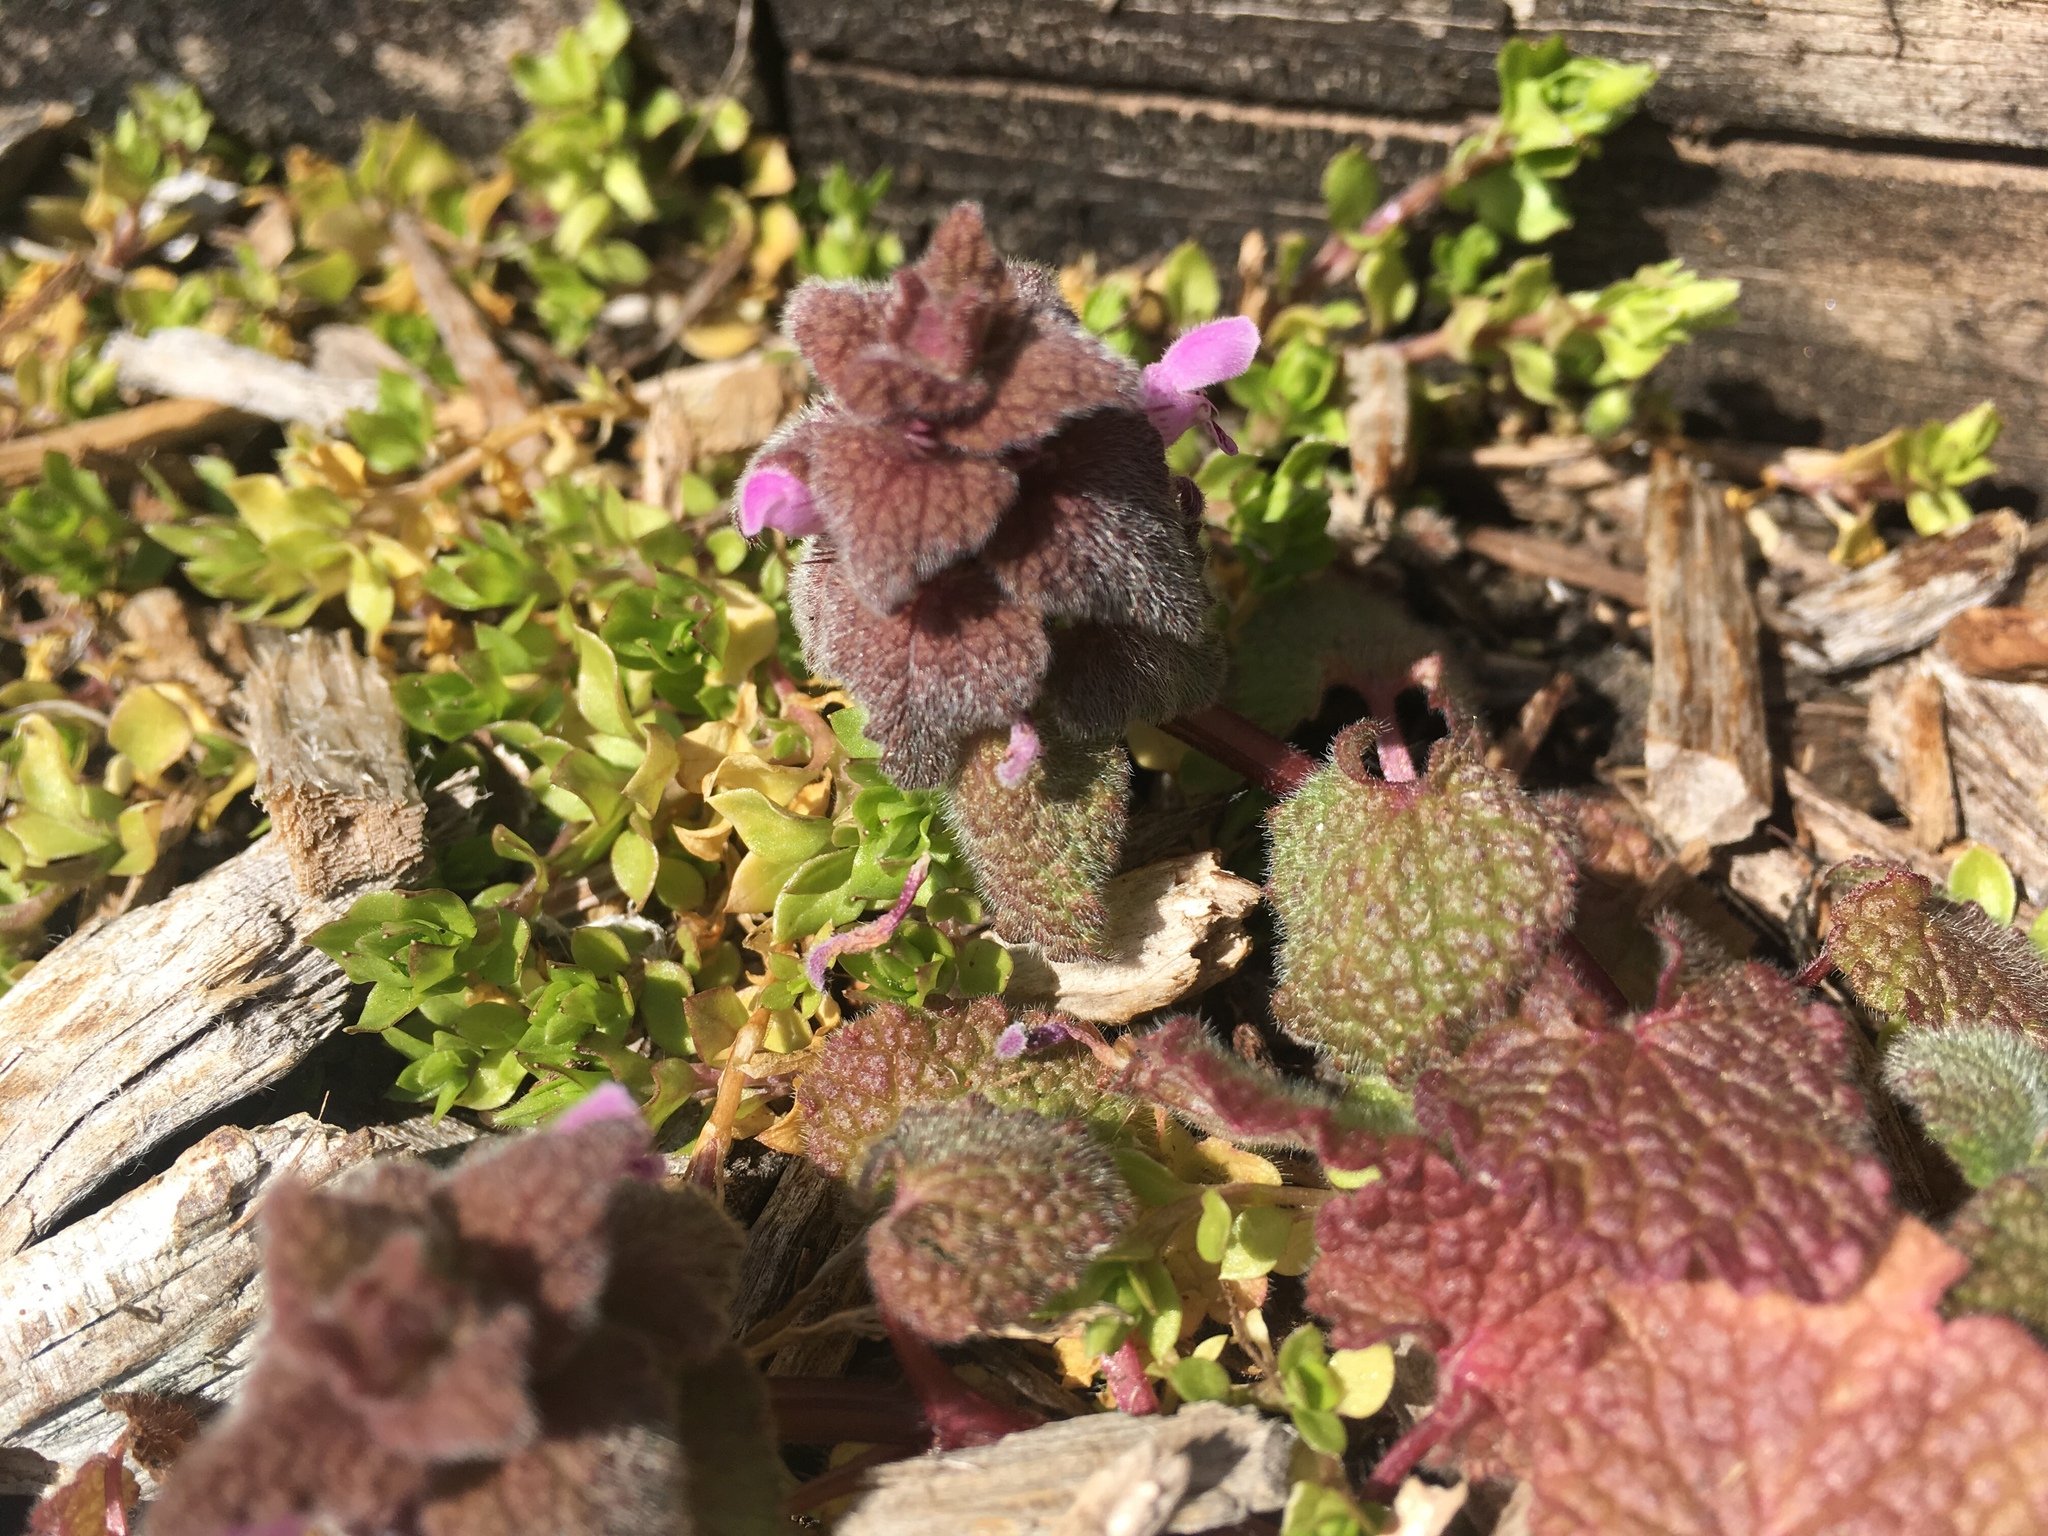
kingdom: Plantae
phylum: Tracheophyta
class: Magnoliopsida
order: Lamiales
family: Lamiaceae
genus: Lamium
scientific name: Lamium purpureum
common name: Red dead-nettle
